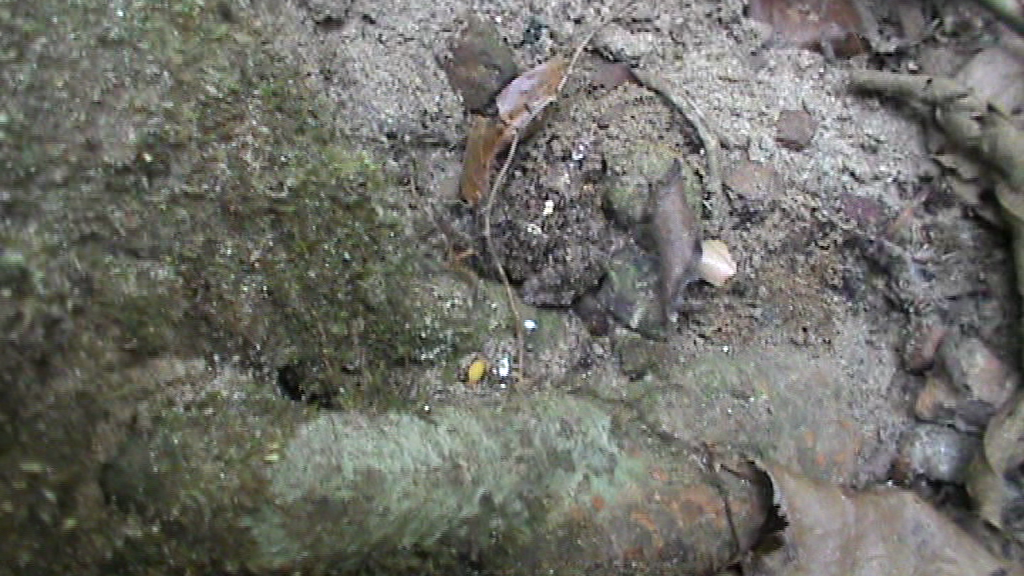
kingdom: Animalia
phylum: Chordata
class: Amphibia
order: Anura
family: Dicroglossidae
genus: Minervarya
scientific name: Minervarya keralensis
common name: Dubois' hill frog
